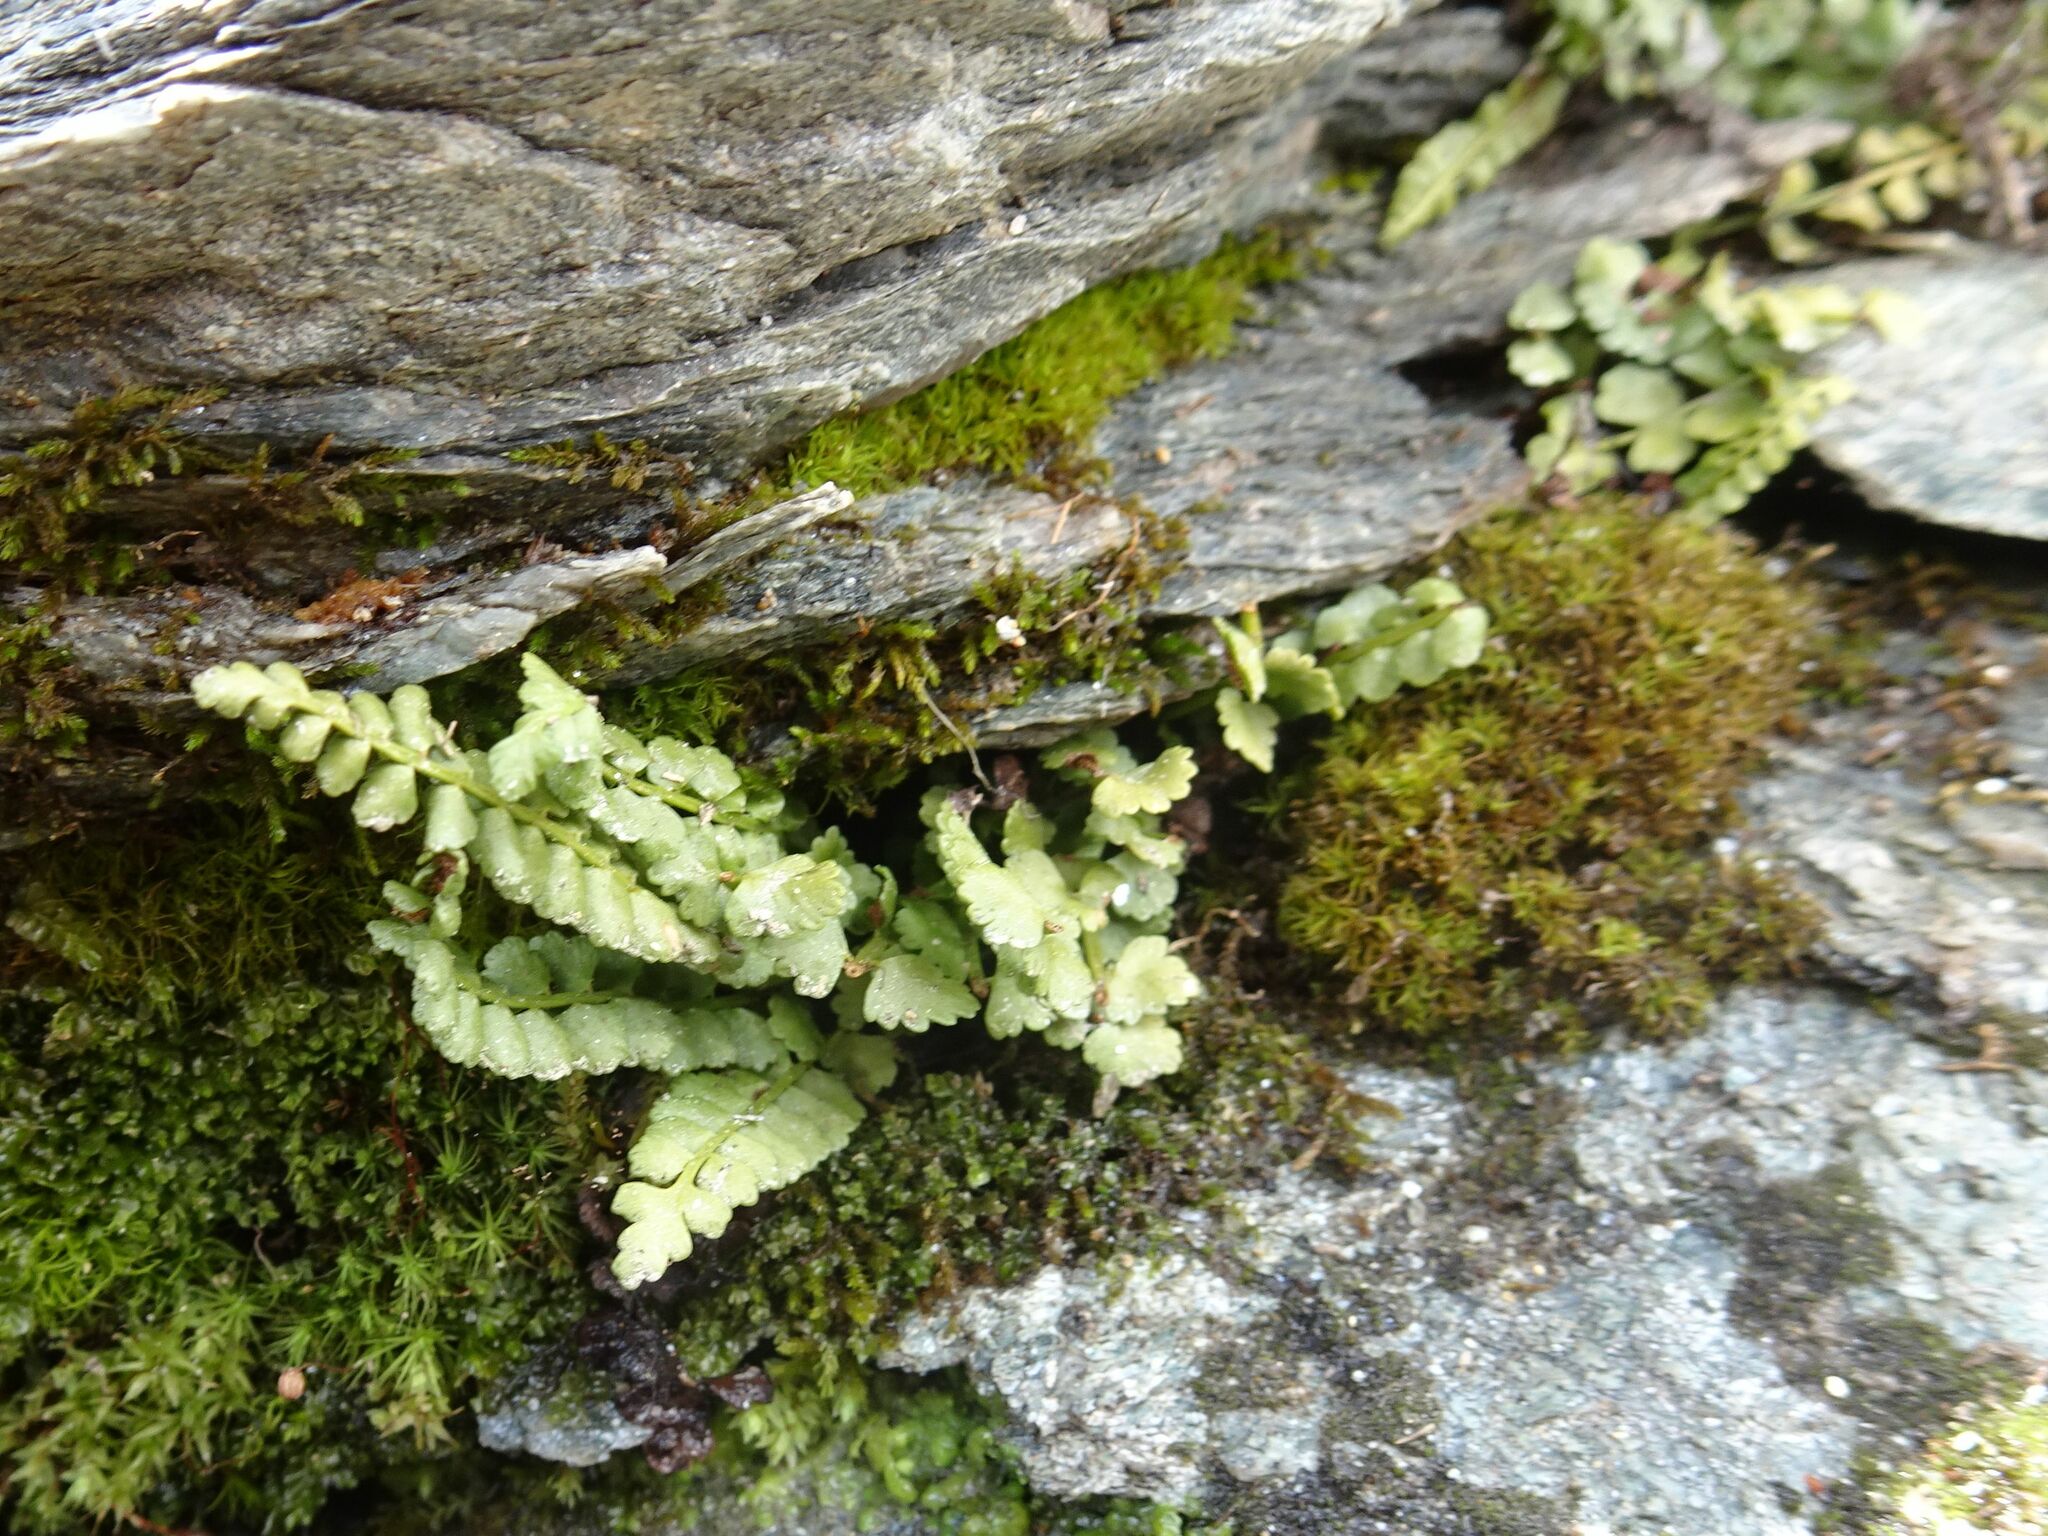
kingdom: Plantae
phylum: Tracheophyta
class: Polypodiopsida
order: Polypodiales
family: Aspleniaceae
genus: Asplenium
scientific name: Asplenium viride
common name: Green spleenwort
